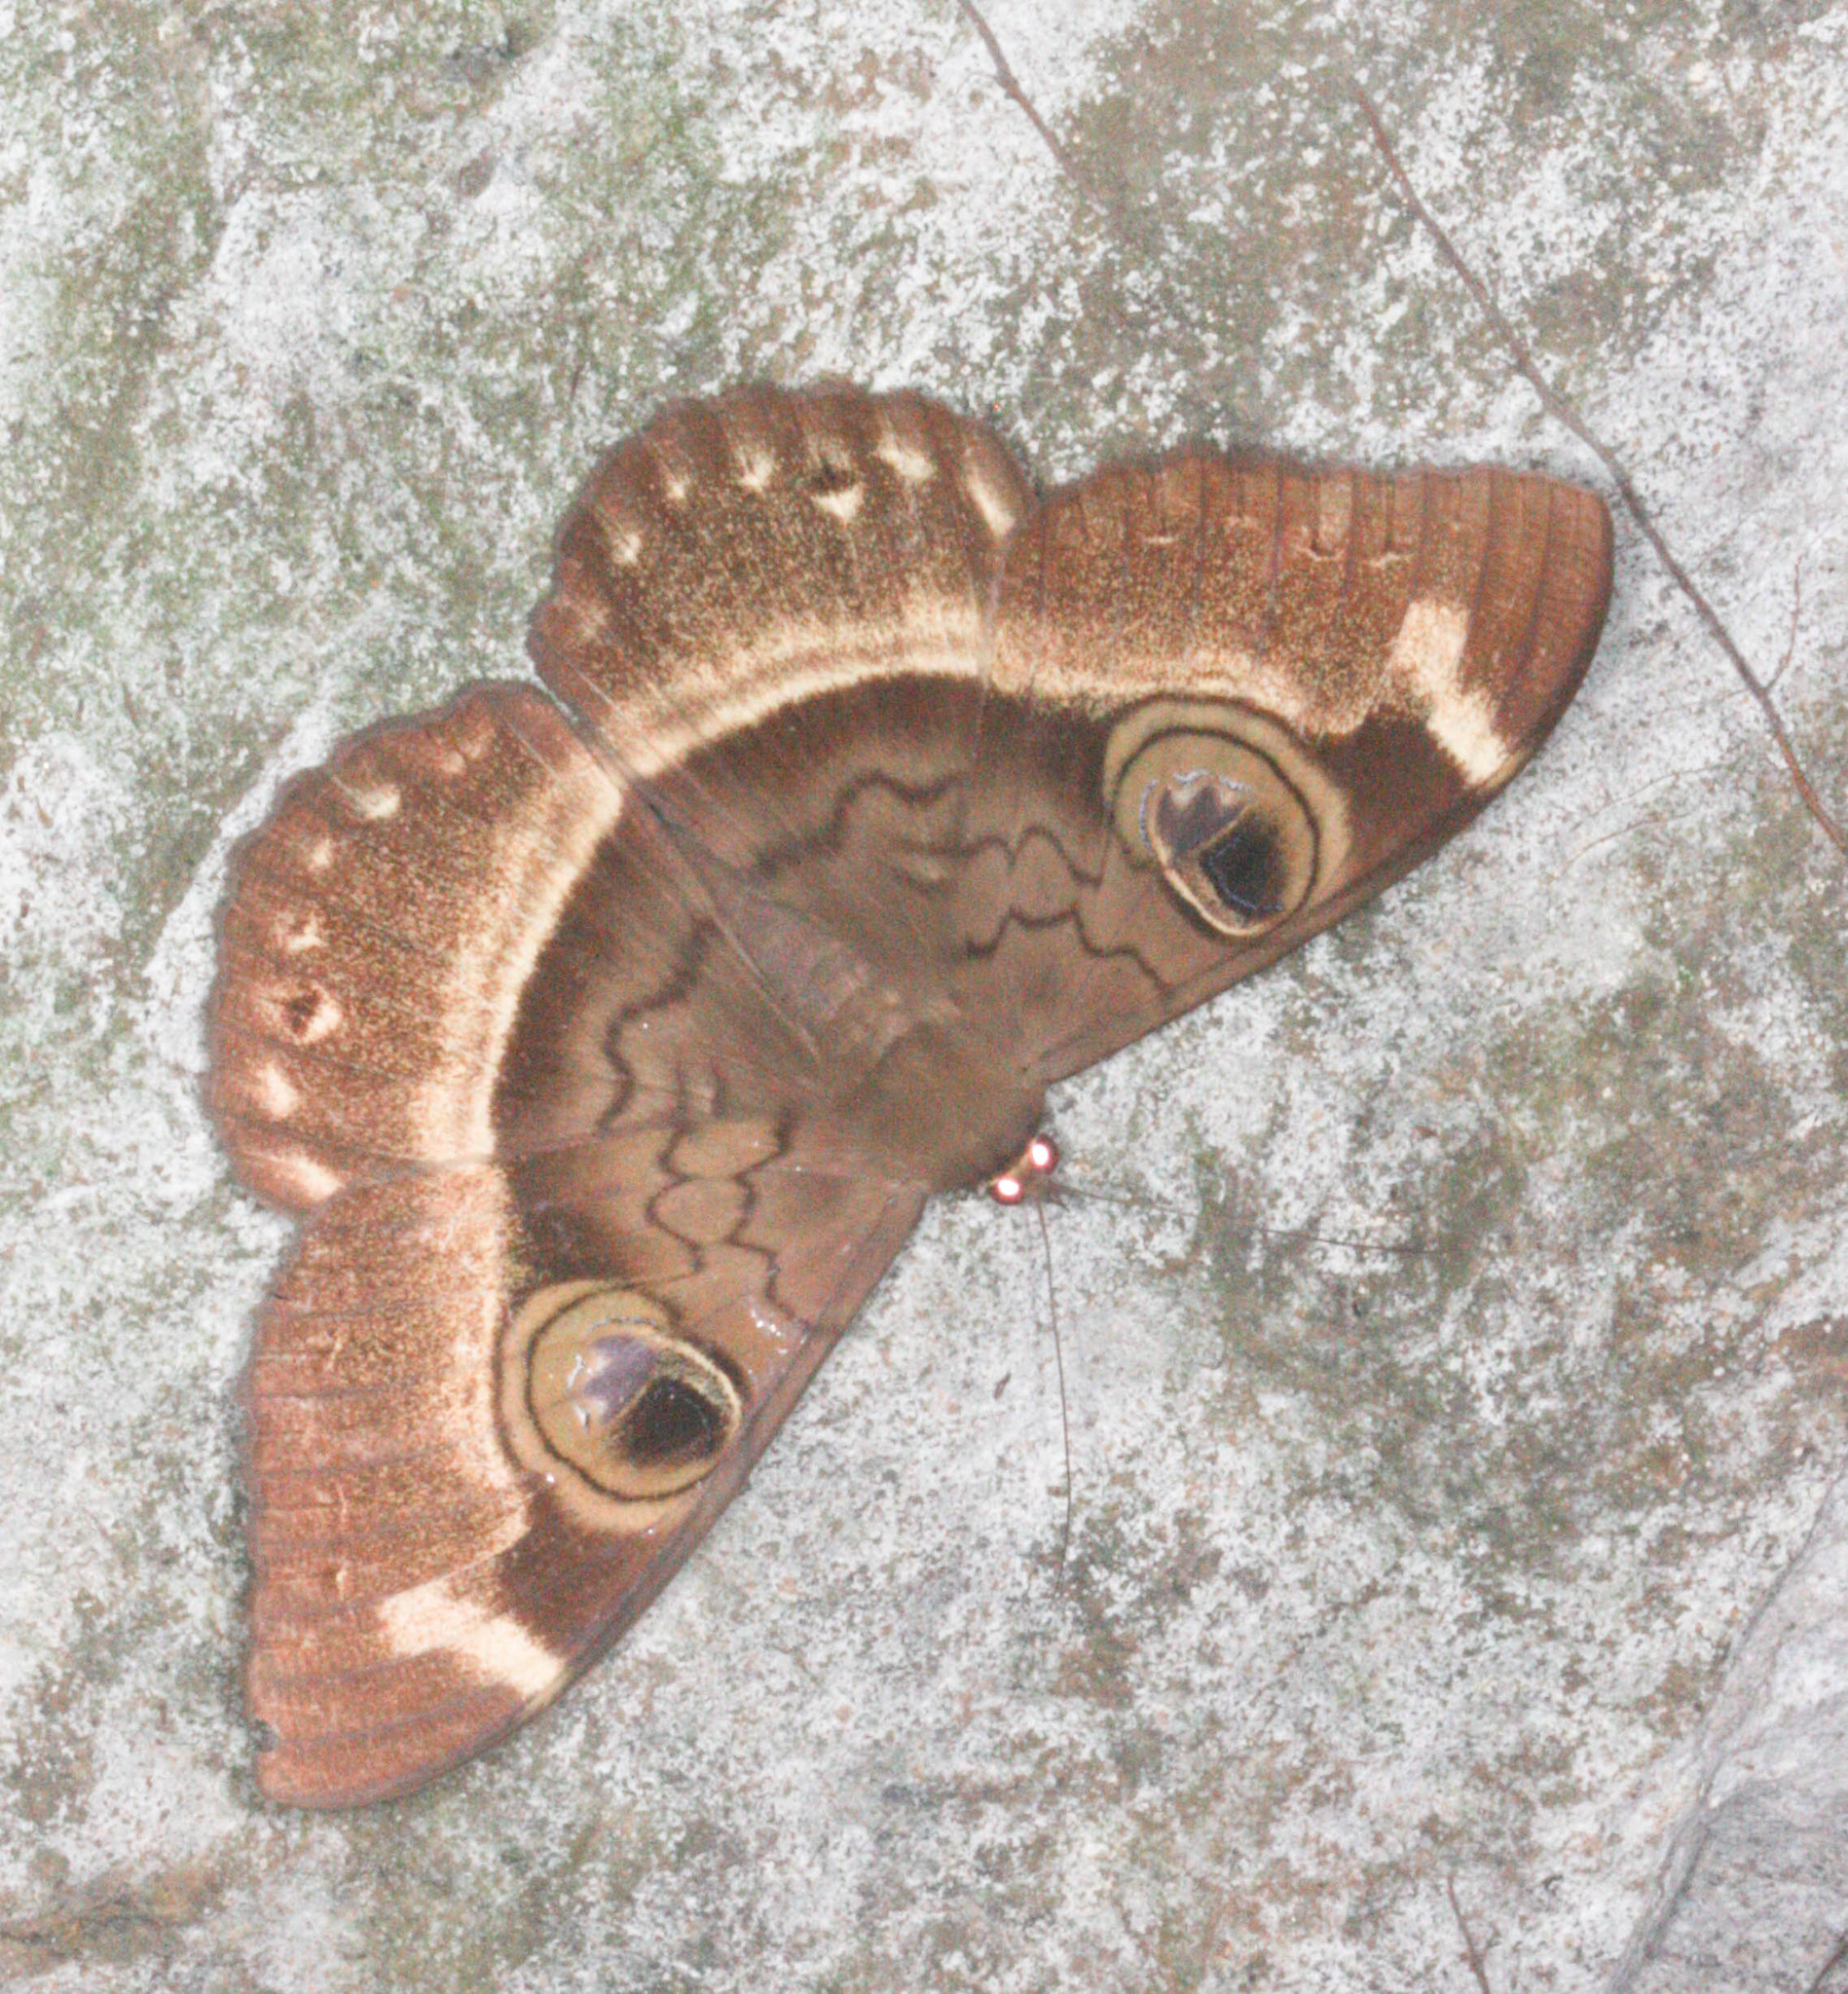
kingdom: Animalia
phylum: Arthropoda
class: Insecta
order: Lepidoptera
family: Erebidae
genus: Cyligramma
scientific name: Cyligramma duplex
